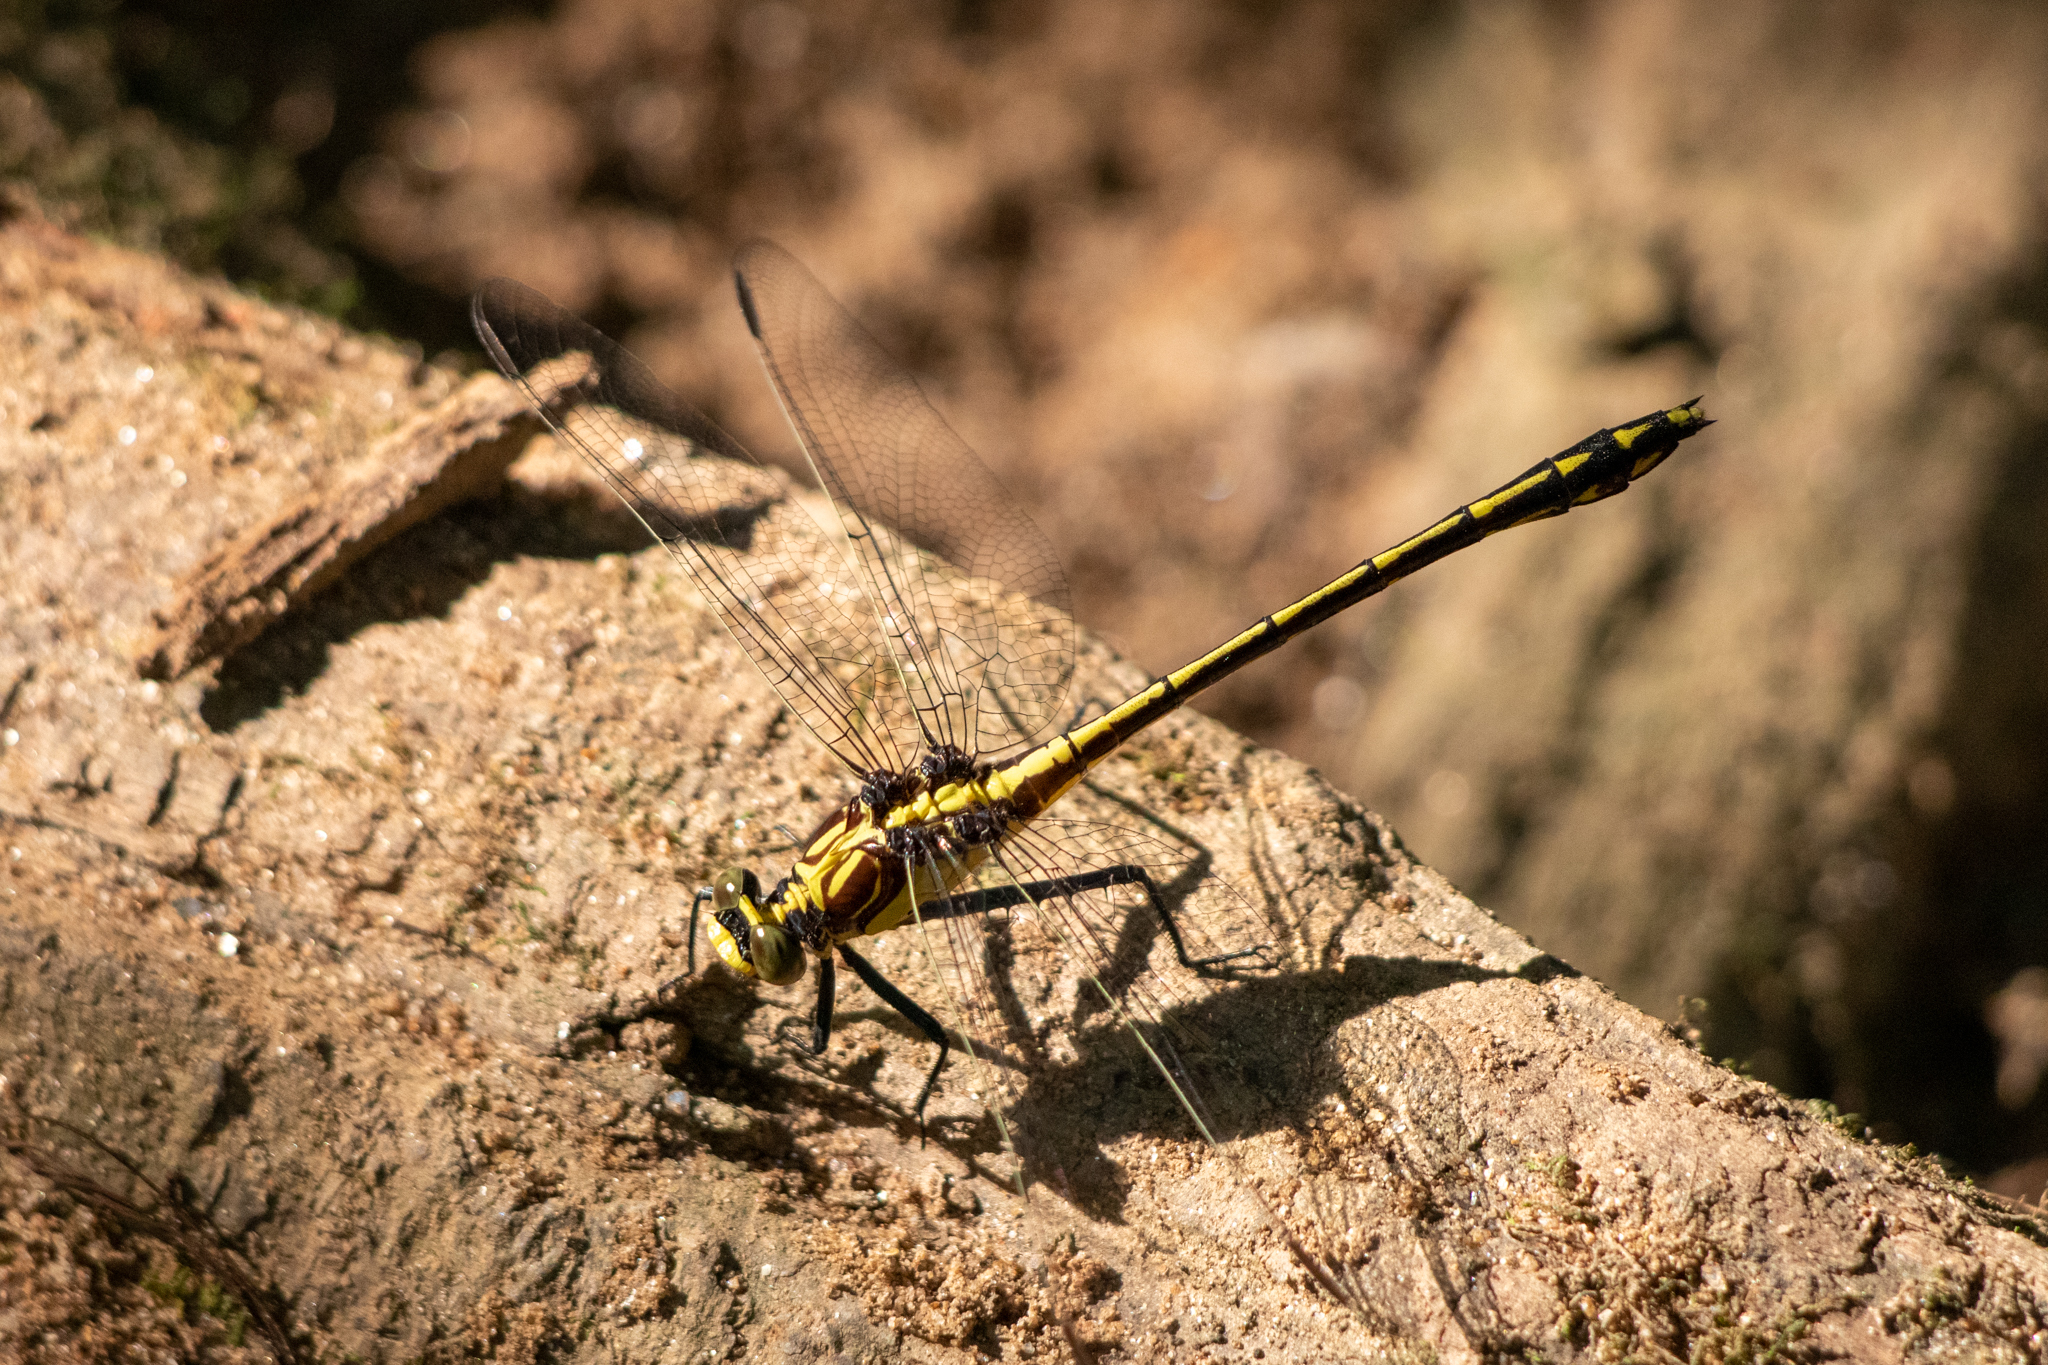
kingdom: Animalia
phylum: Arthropoda
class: Insecta
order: Odonata
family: Gomphidae
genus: Dromogomphus
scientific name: Dromogomphus spinosus
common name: Black-shouldered spinyleg
